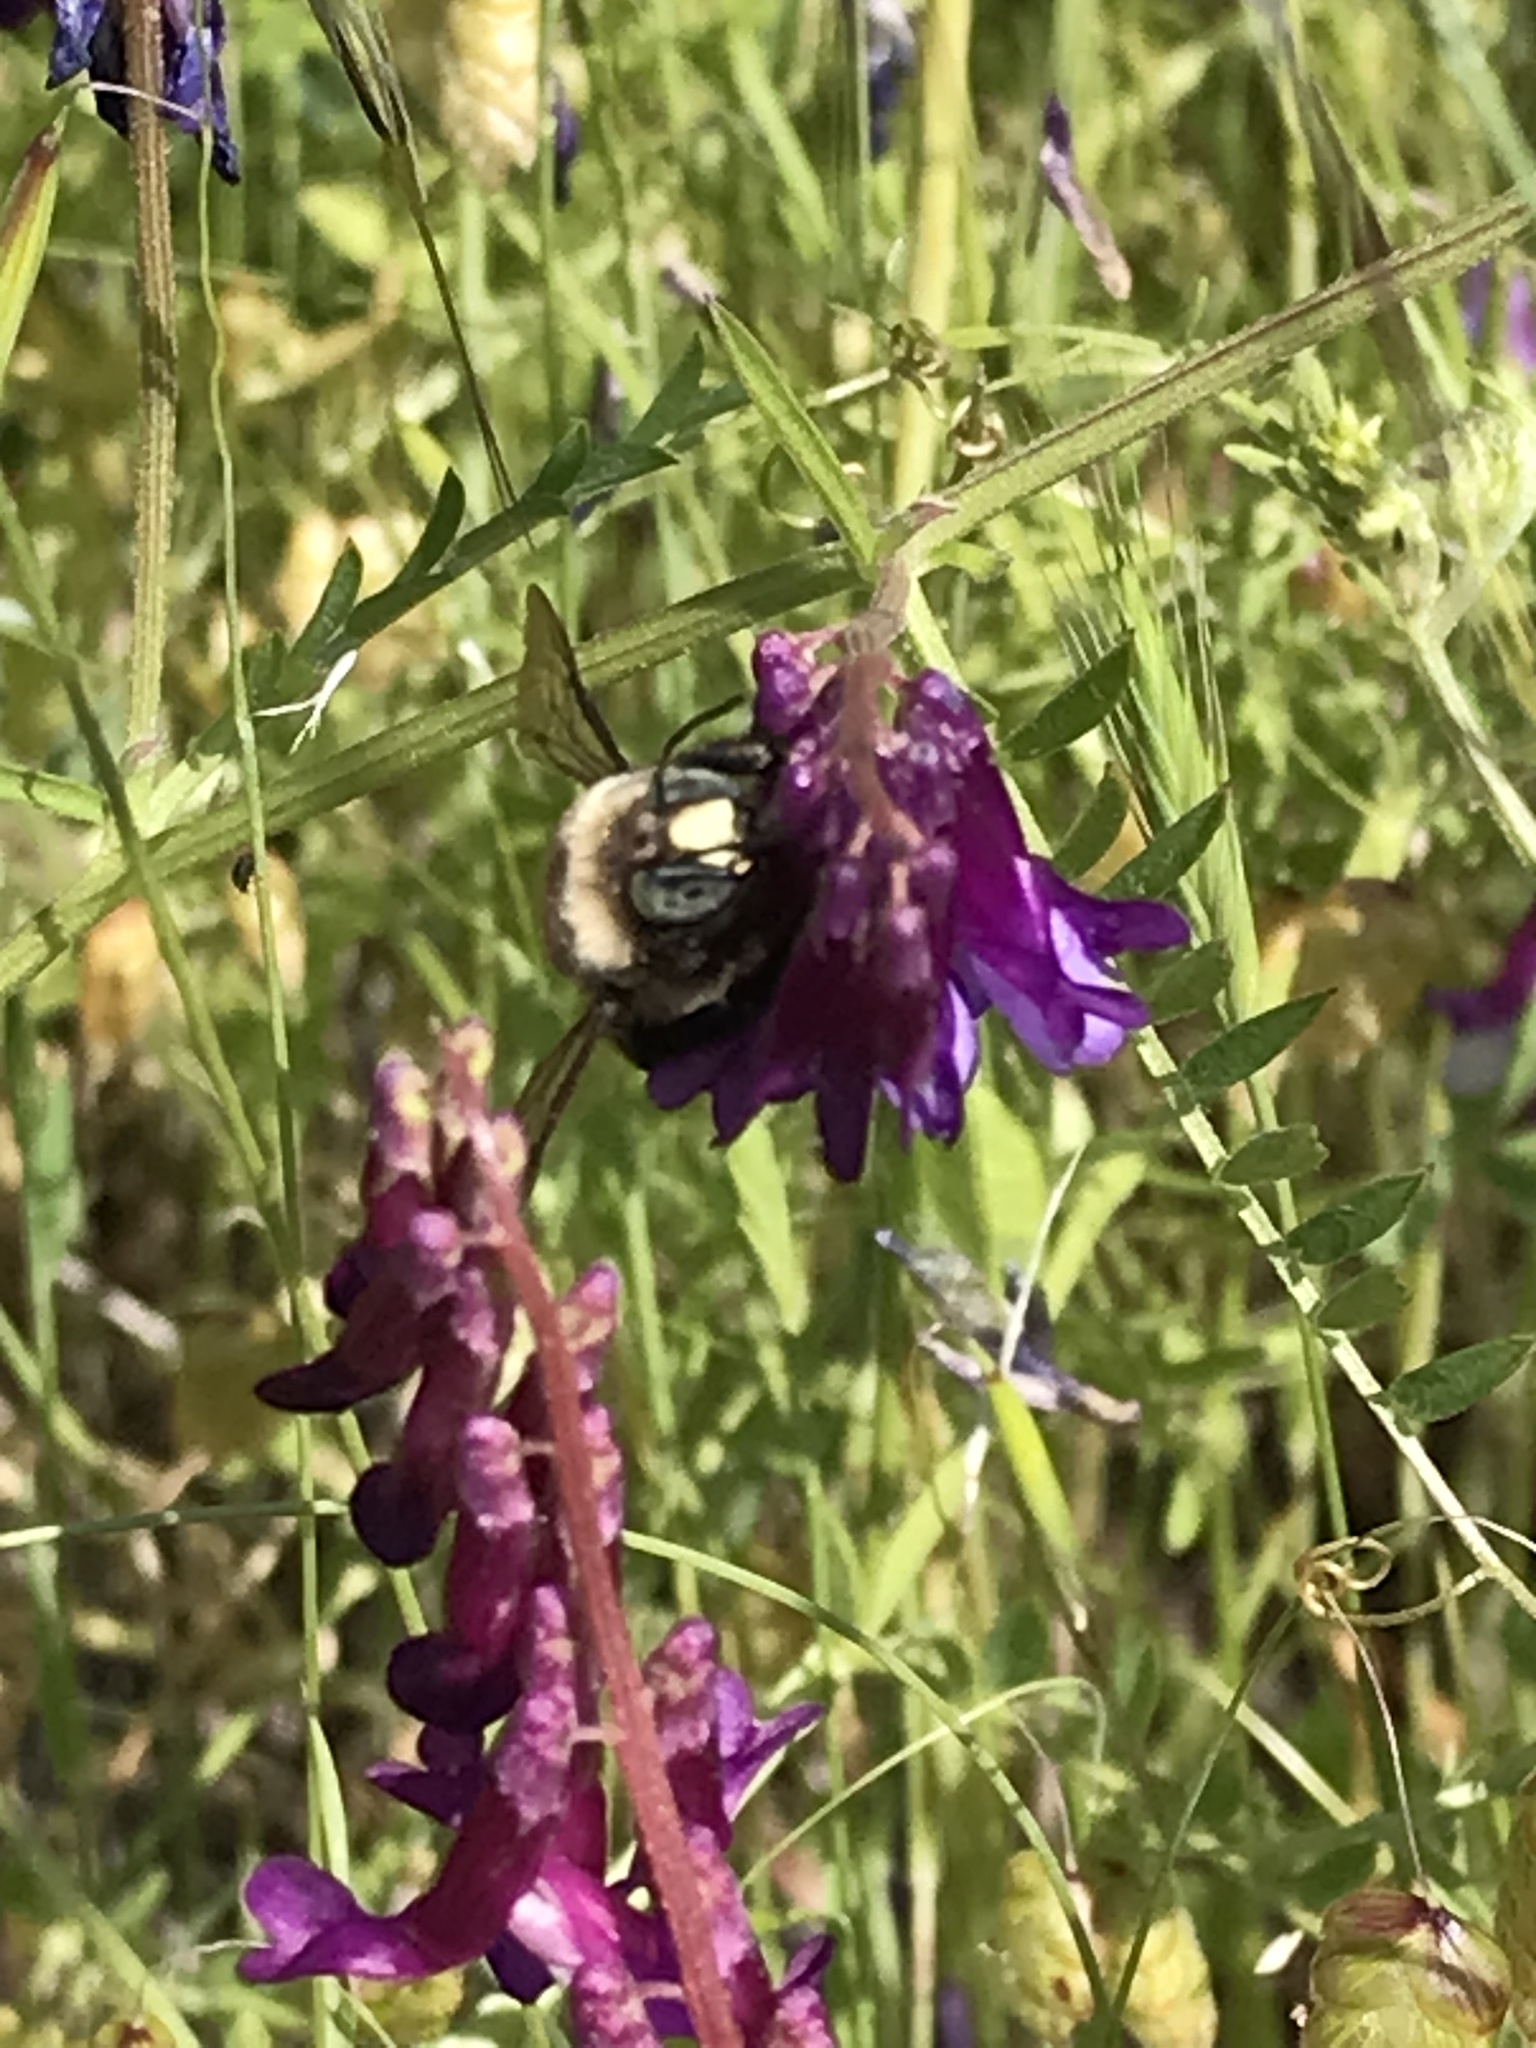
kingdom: Animalia
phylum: Arthropoda
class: Insecta
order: Hymenoptera
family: Apidae
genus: Xylocopa
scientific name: Xylocopa tabaniformis
